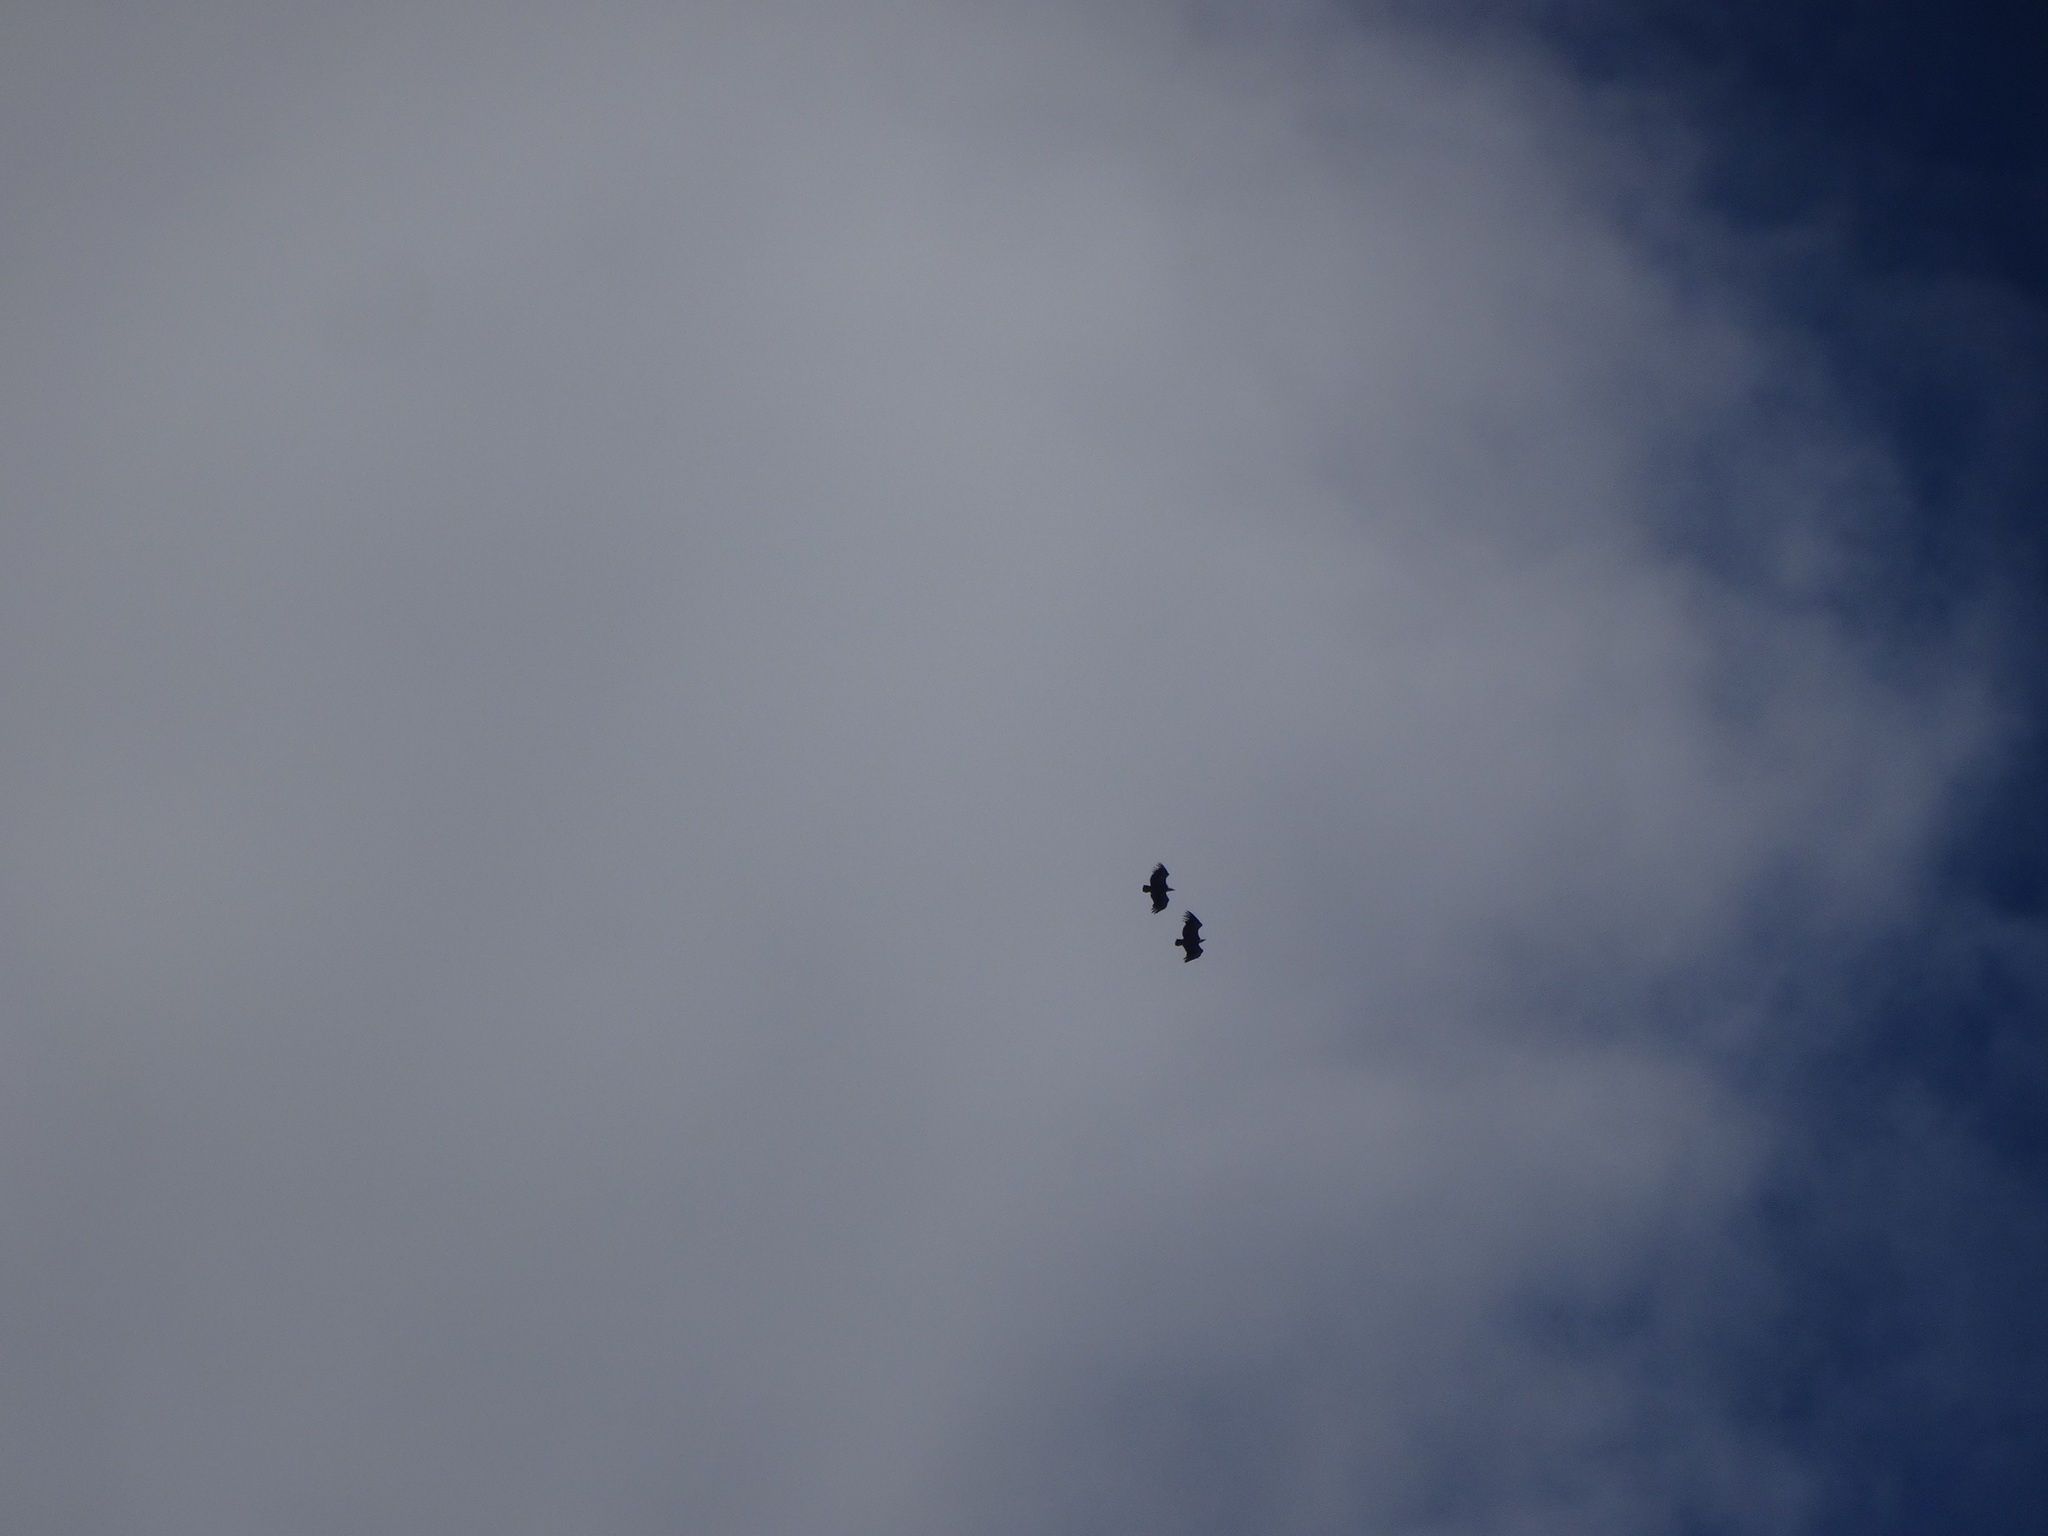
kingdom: Animalia
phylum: Chordata
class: Aves
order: Accipitriformes
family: Accipitridae
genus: Gyps
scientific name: Gyps fulvus
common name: Griffon vulture
